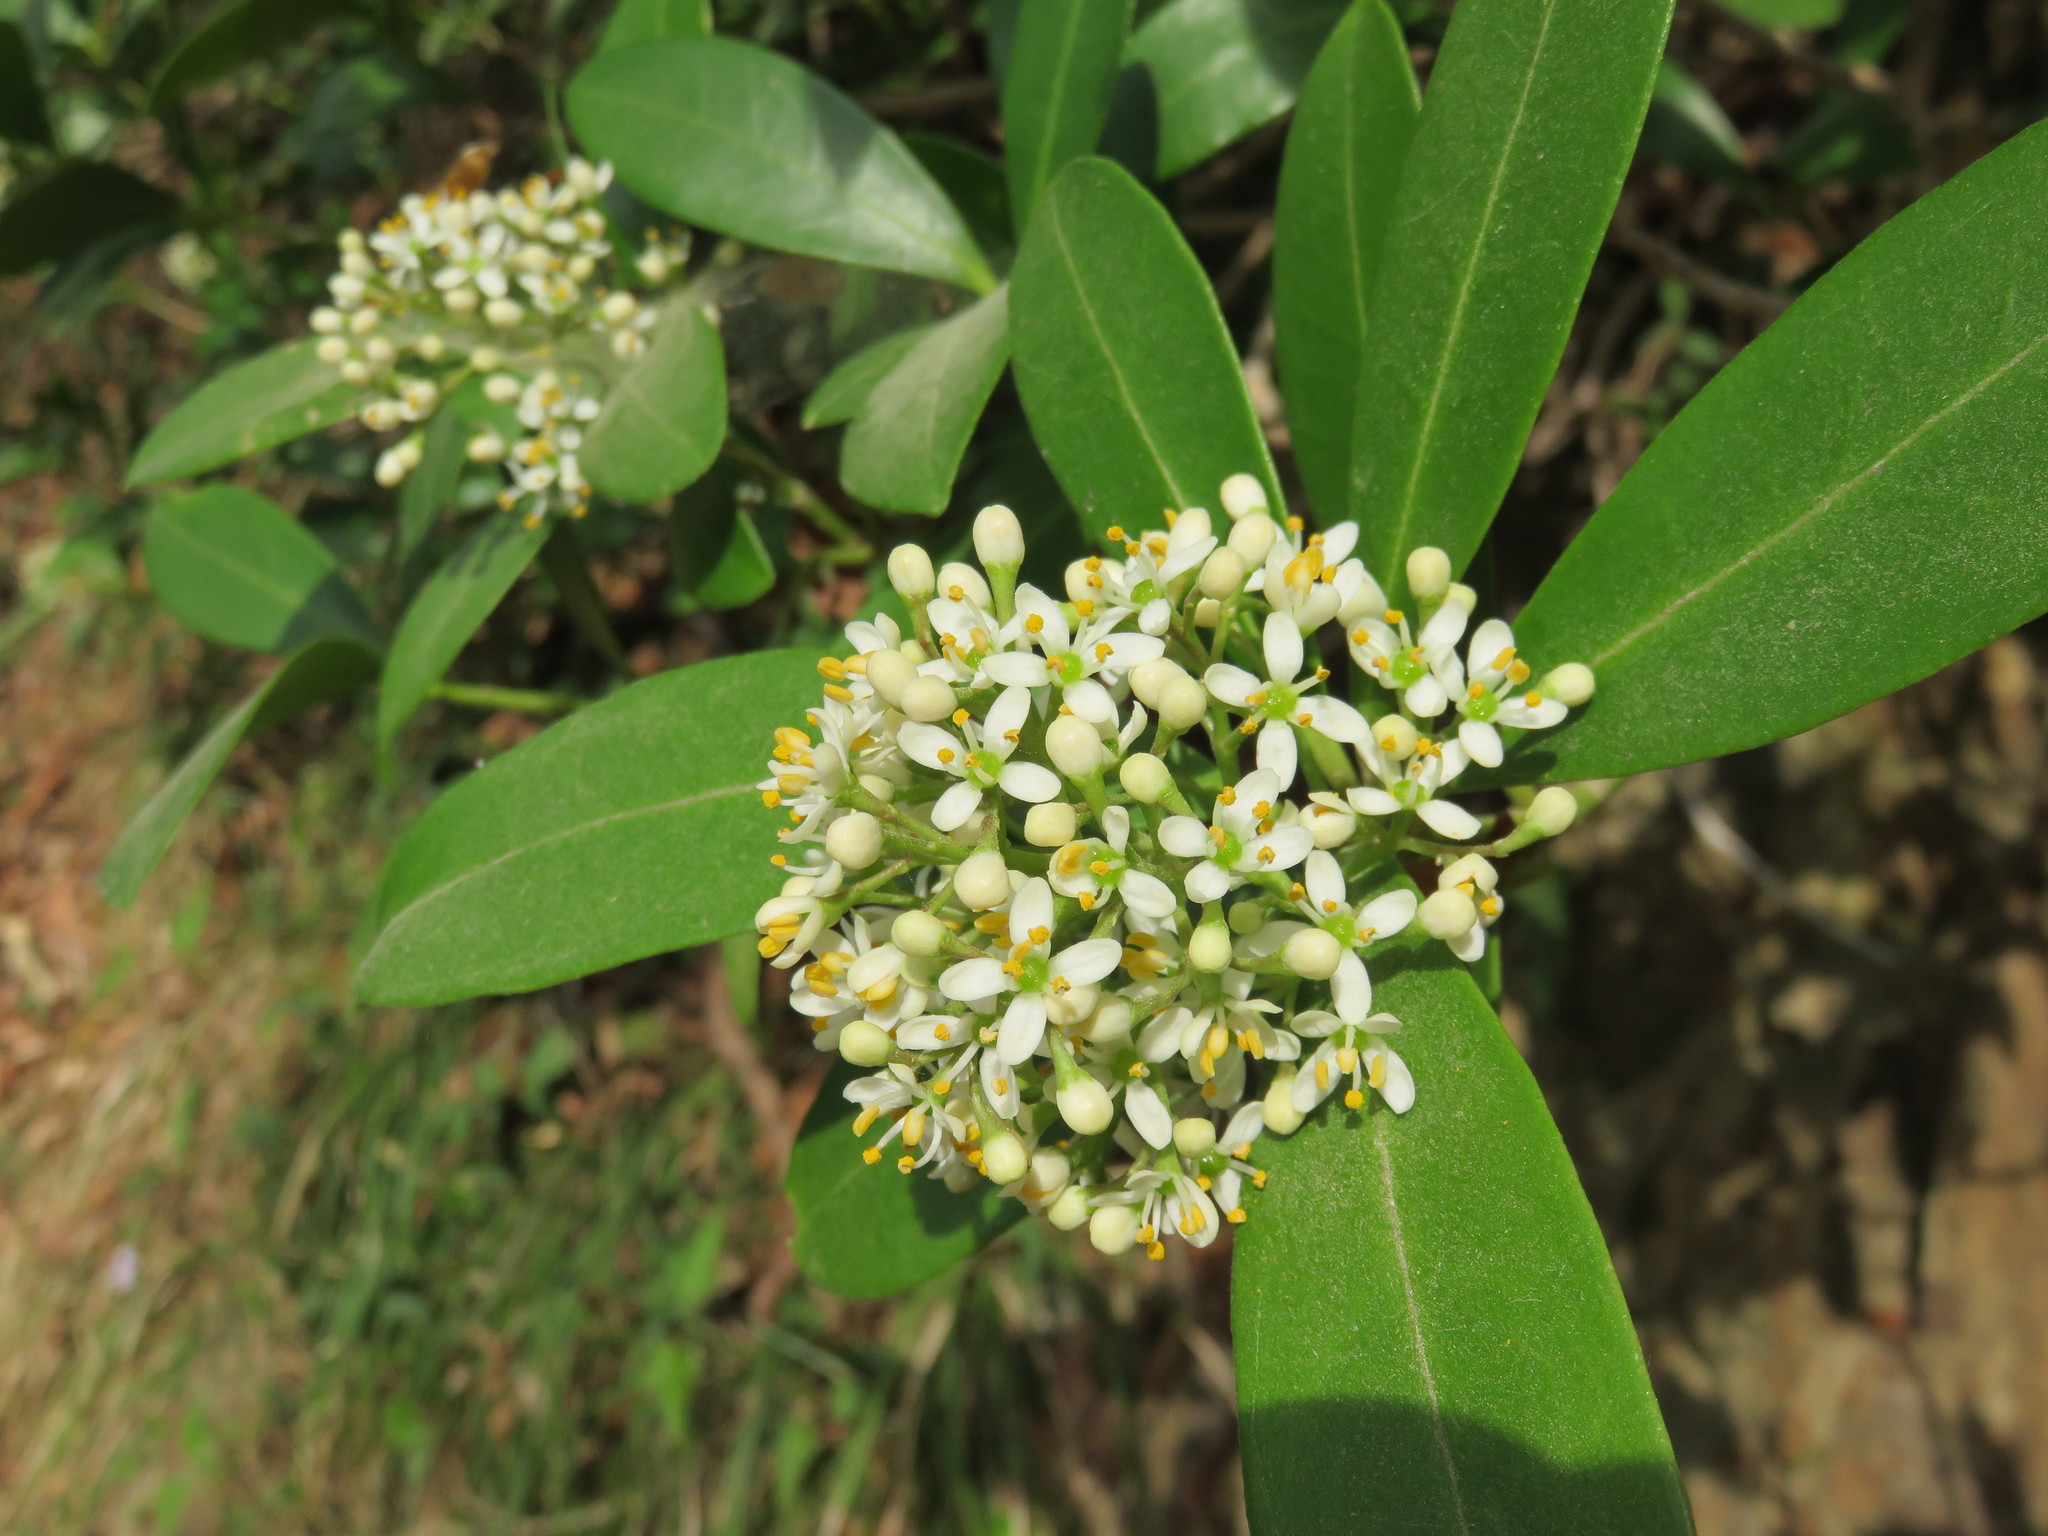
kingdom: Plantae
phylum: Tracheophyta
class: Magnoliopsida
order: Sapindales
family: Rutaceae
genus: Skimmia
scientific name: Skimmia japonica
